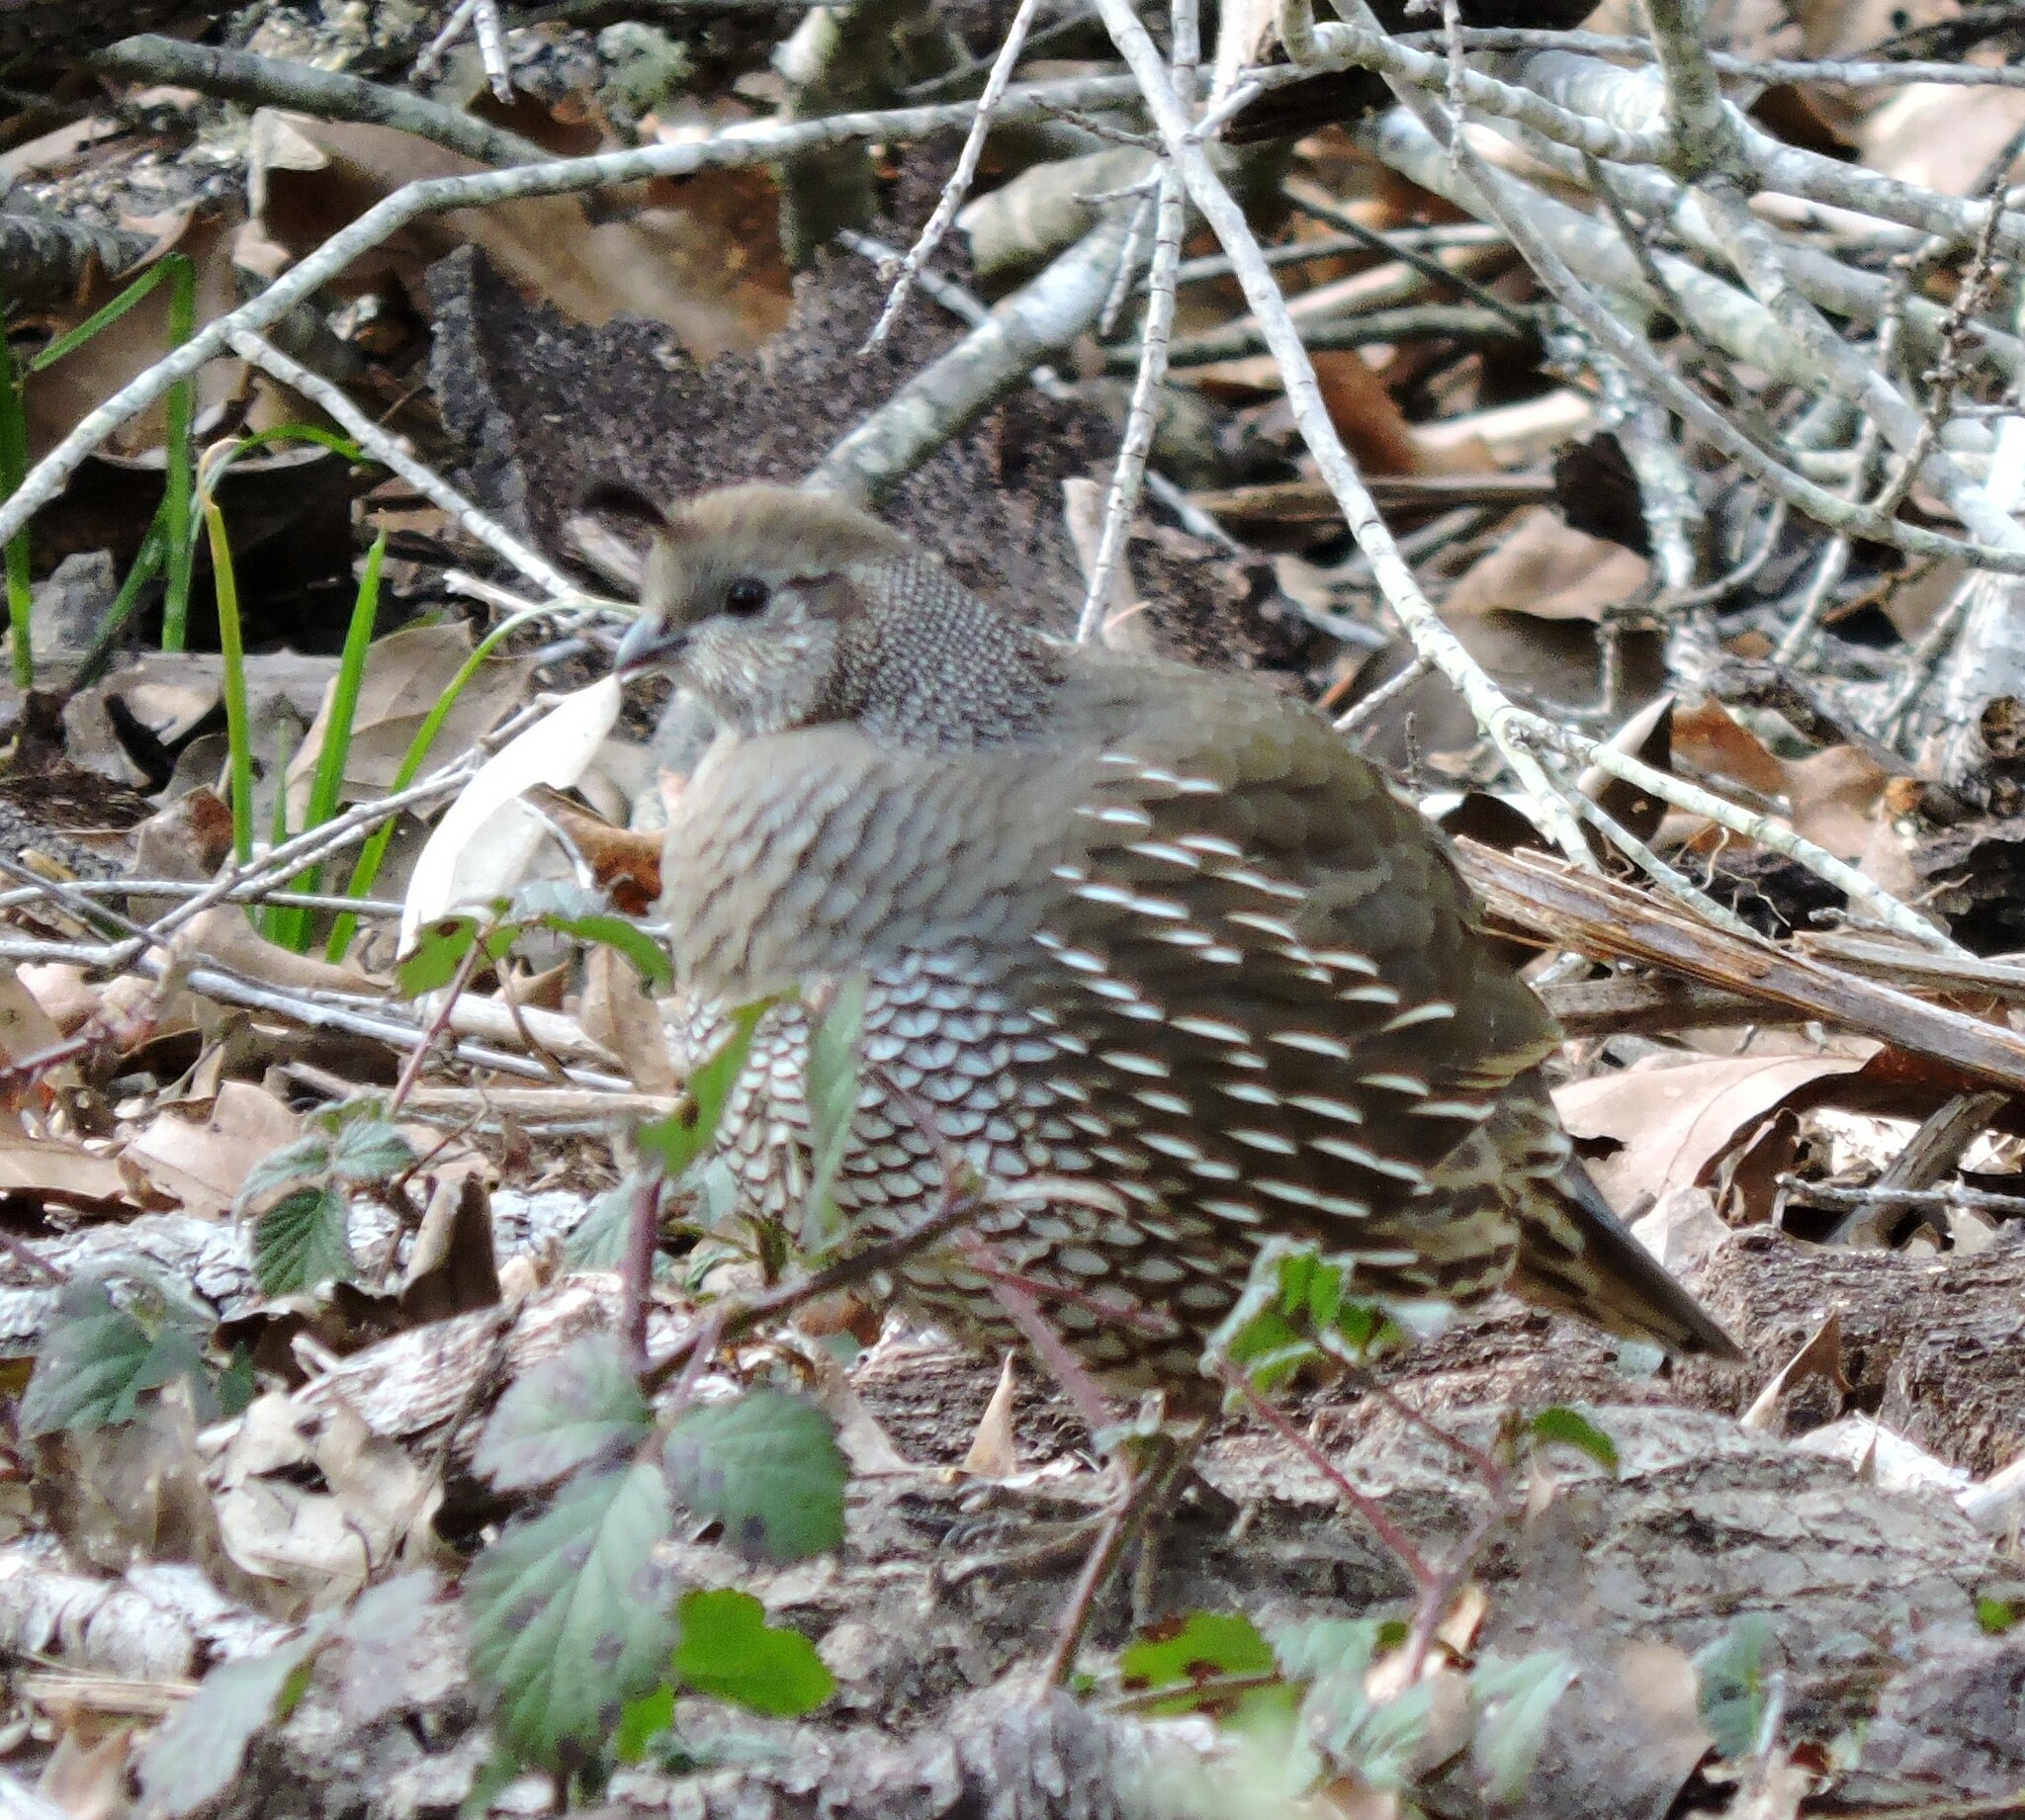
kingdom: Animalia
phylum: Chordata
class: Aves
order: Galliformes
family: Odontophoridae
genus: Callipepla
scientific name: Callipepla californica
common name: California quail
